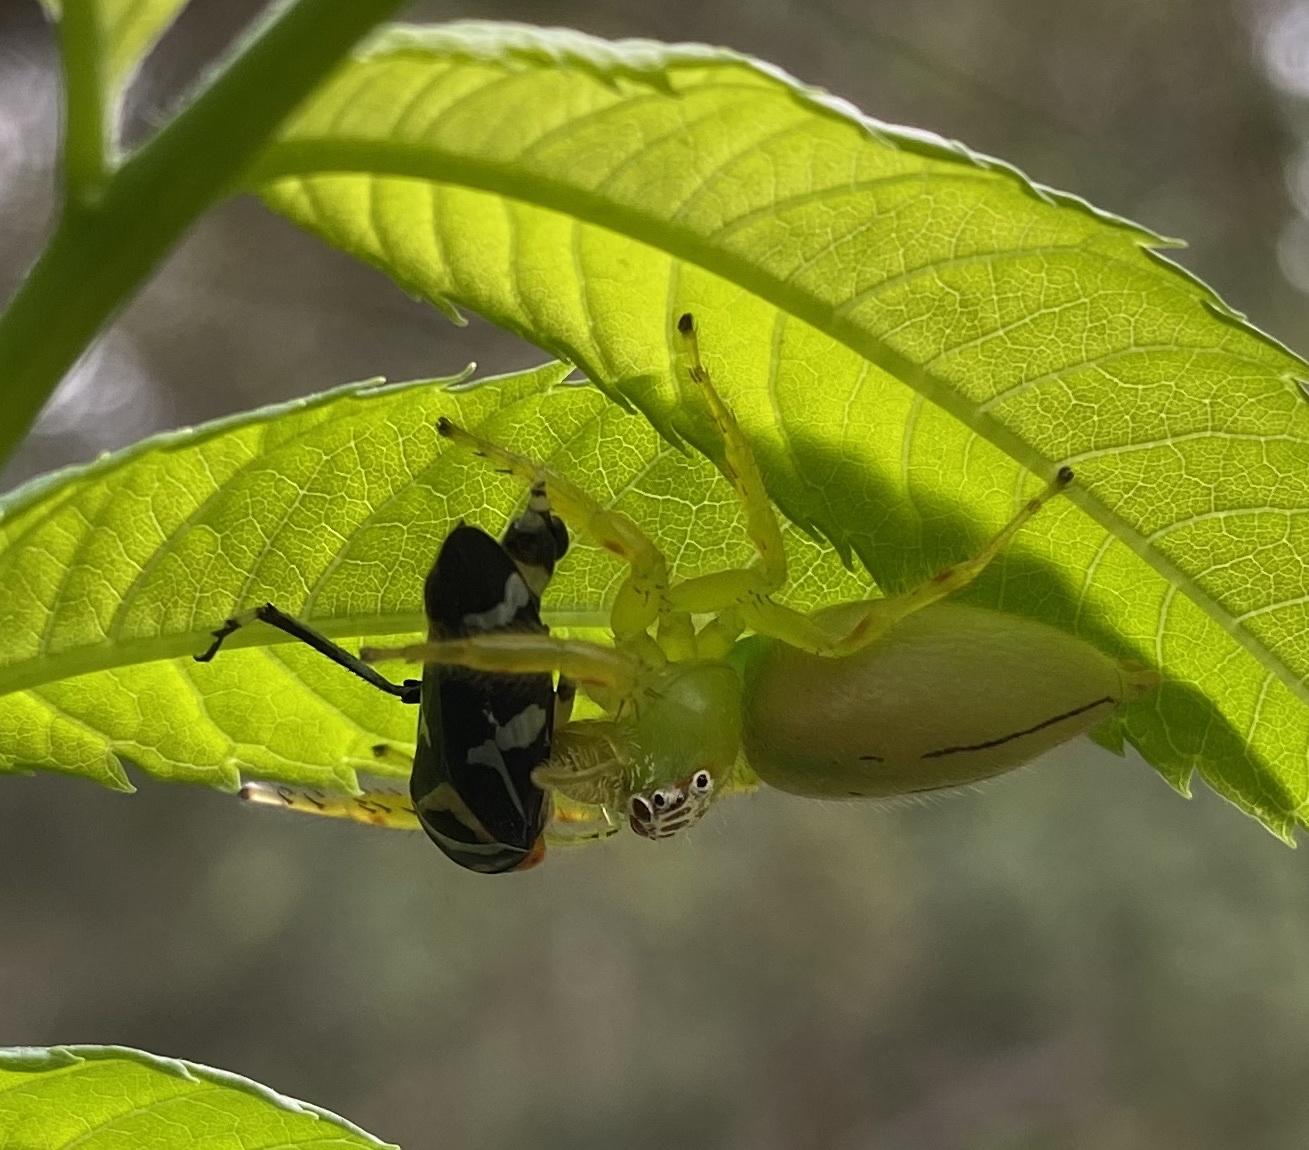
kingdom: Animalia
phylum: Arthropoda
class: Arachnida
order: Araneae
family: Salticidae
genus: Mopsus
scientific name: Mopsus mormon
